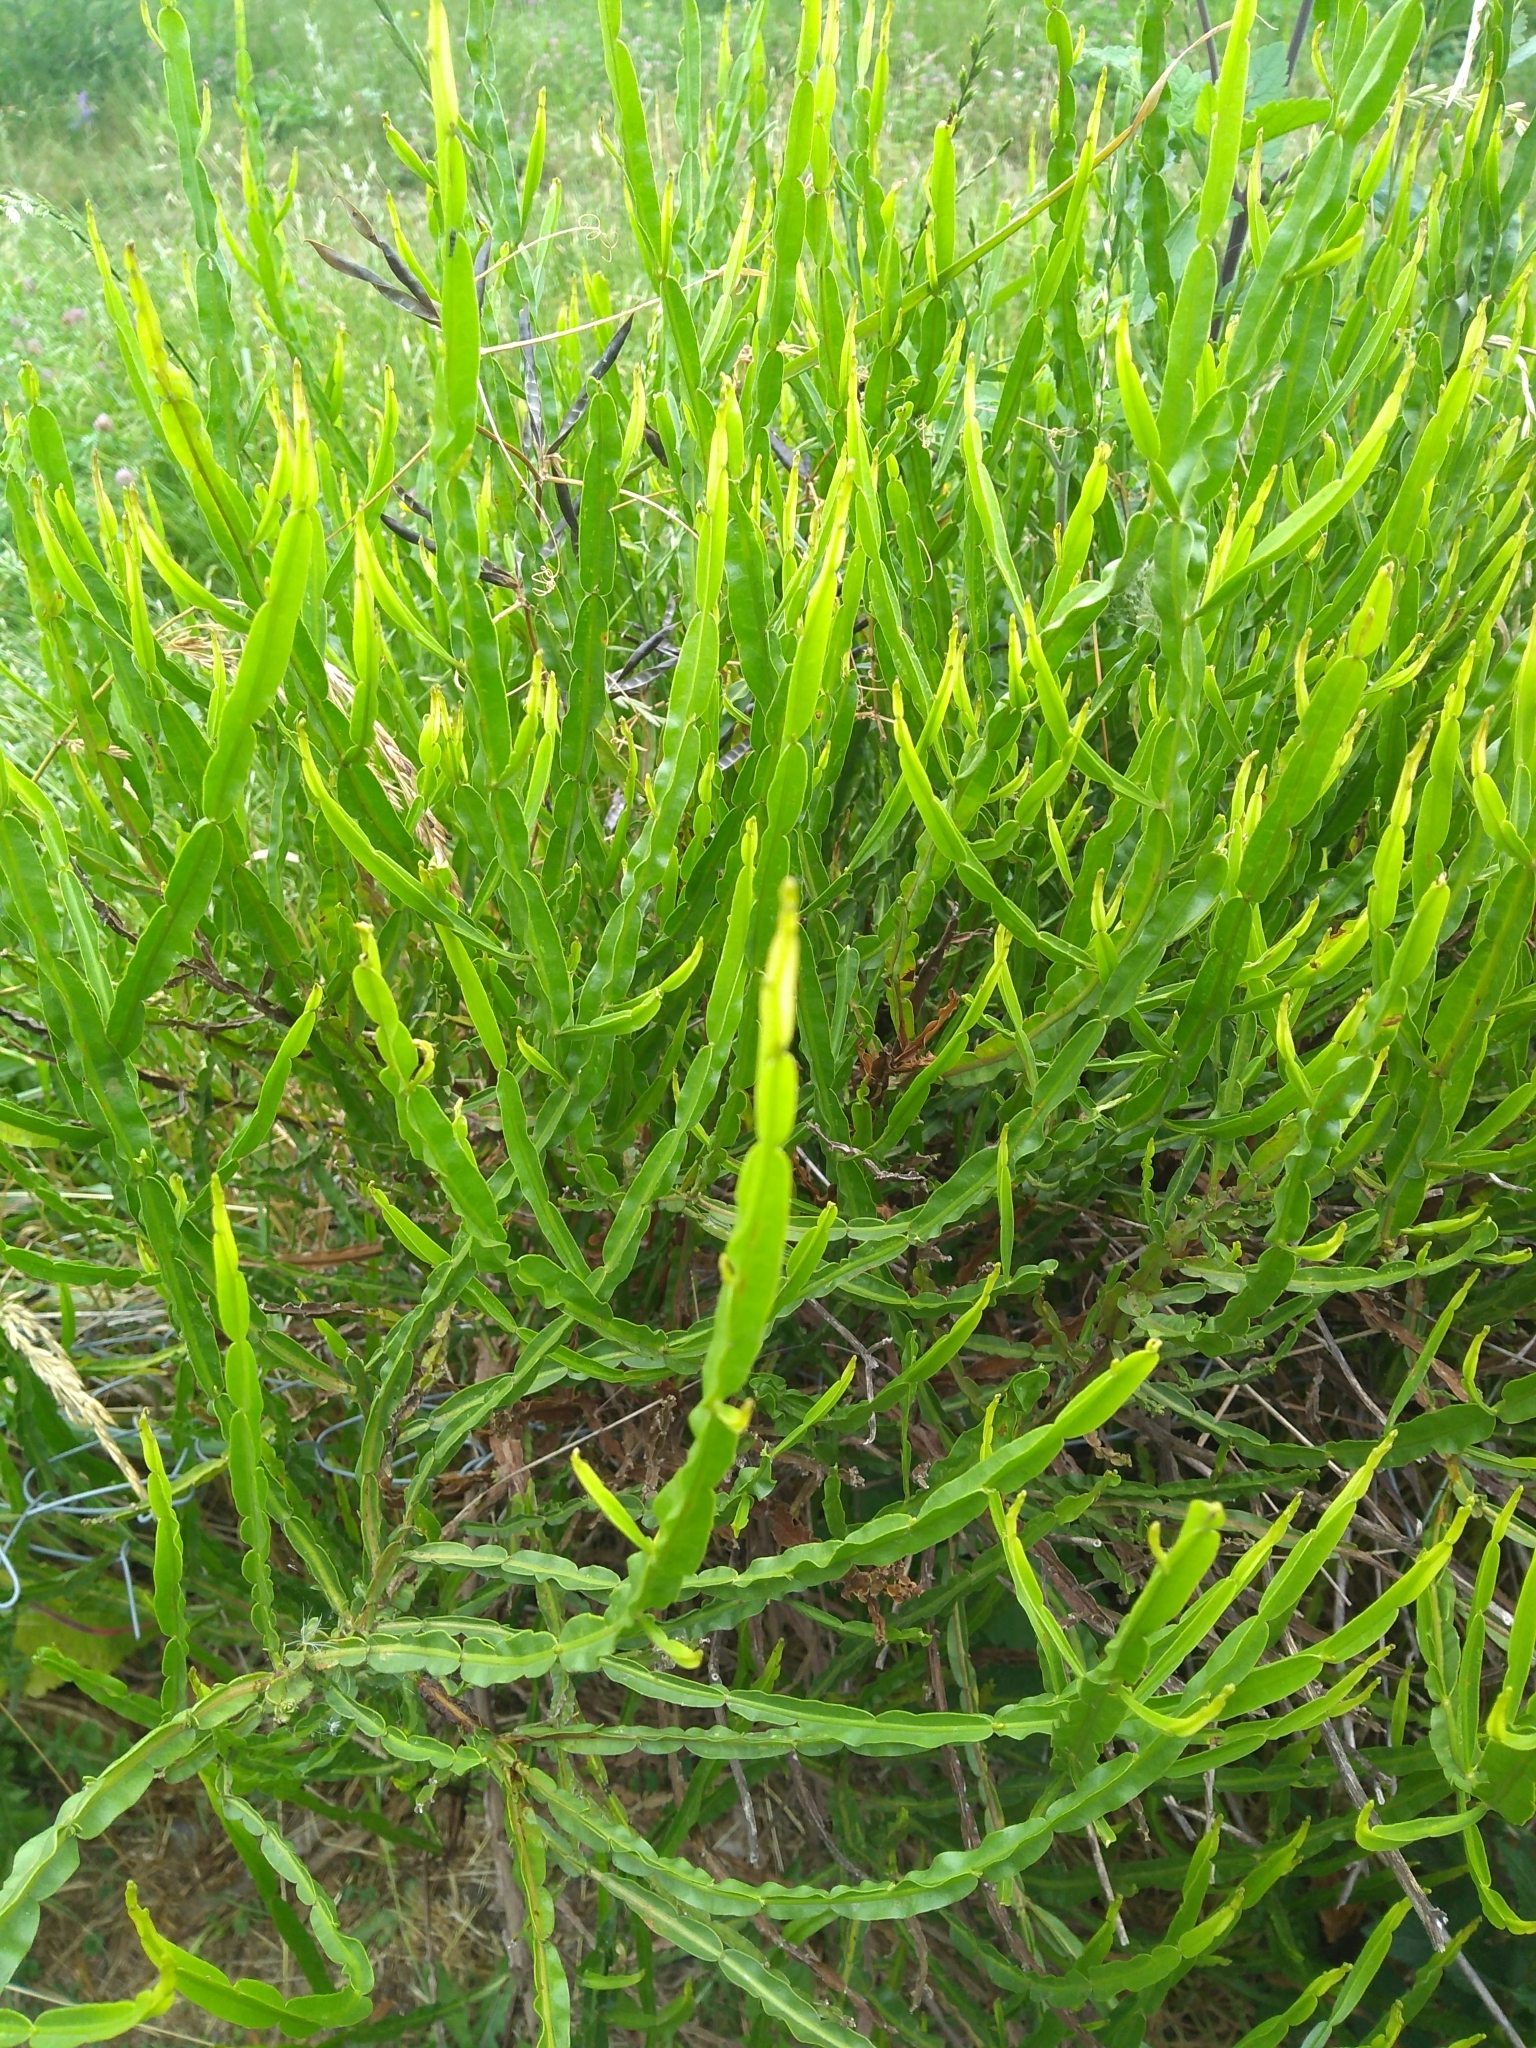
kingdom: Plantae
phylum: Tracheophyta
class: Magnoliopsida
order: Asterales
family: Asteraceae
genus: Baccharis
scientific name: Baccharis trimera
